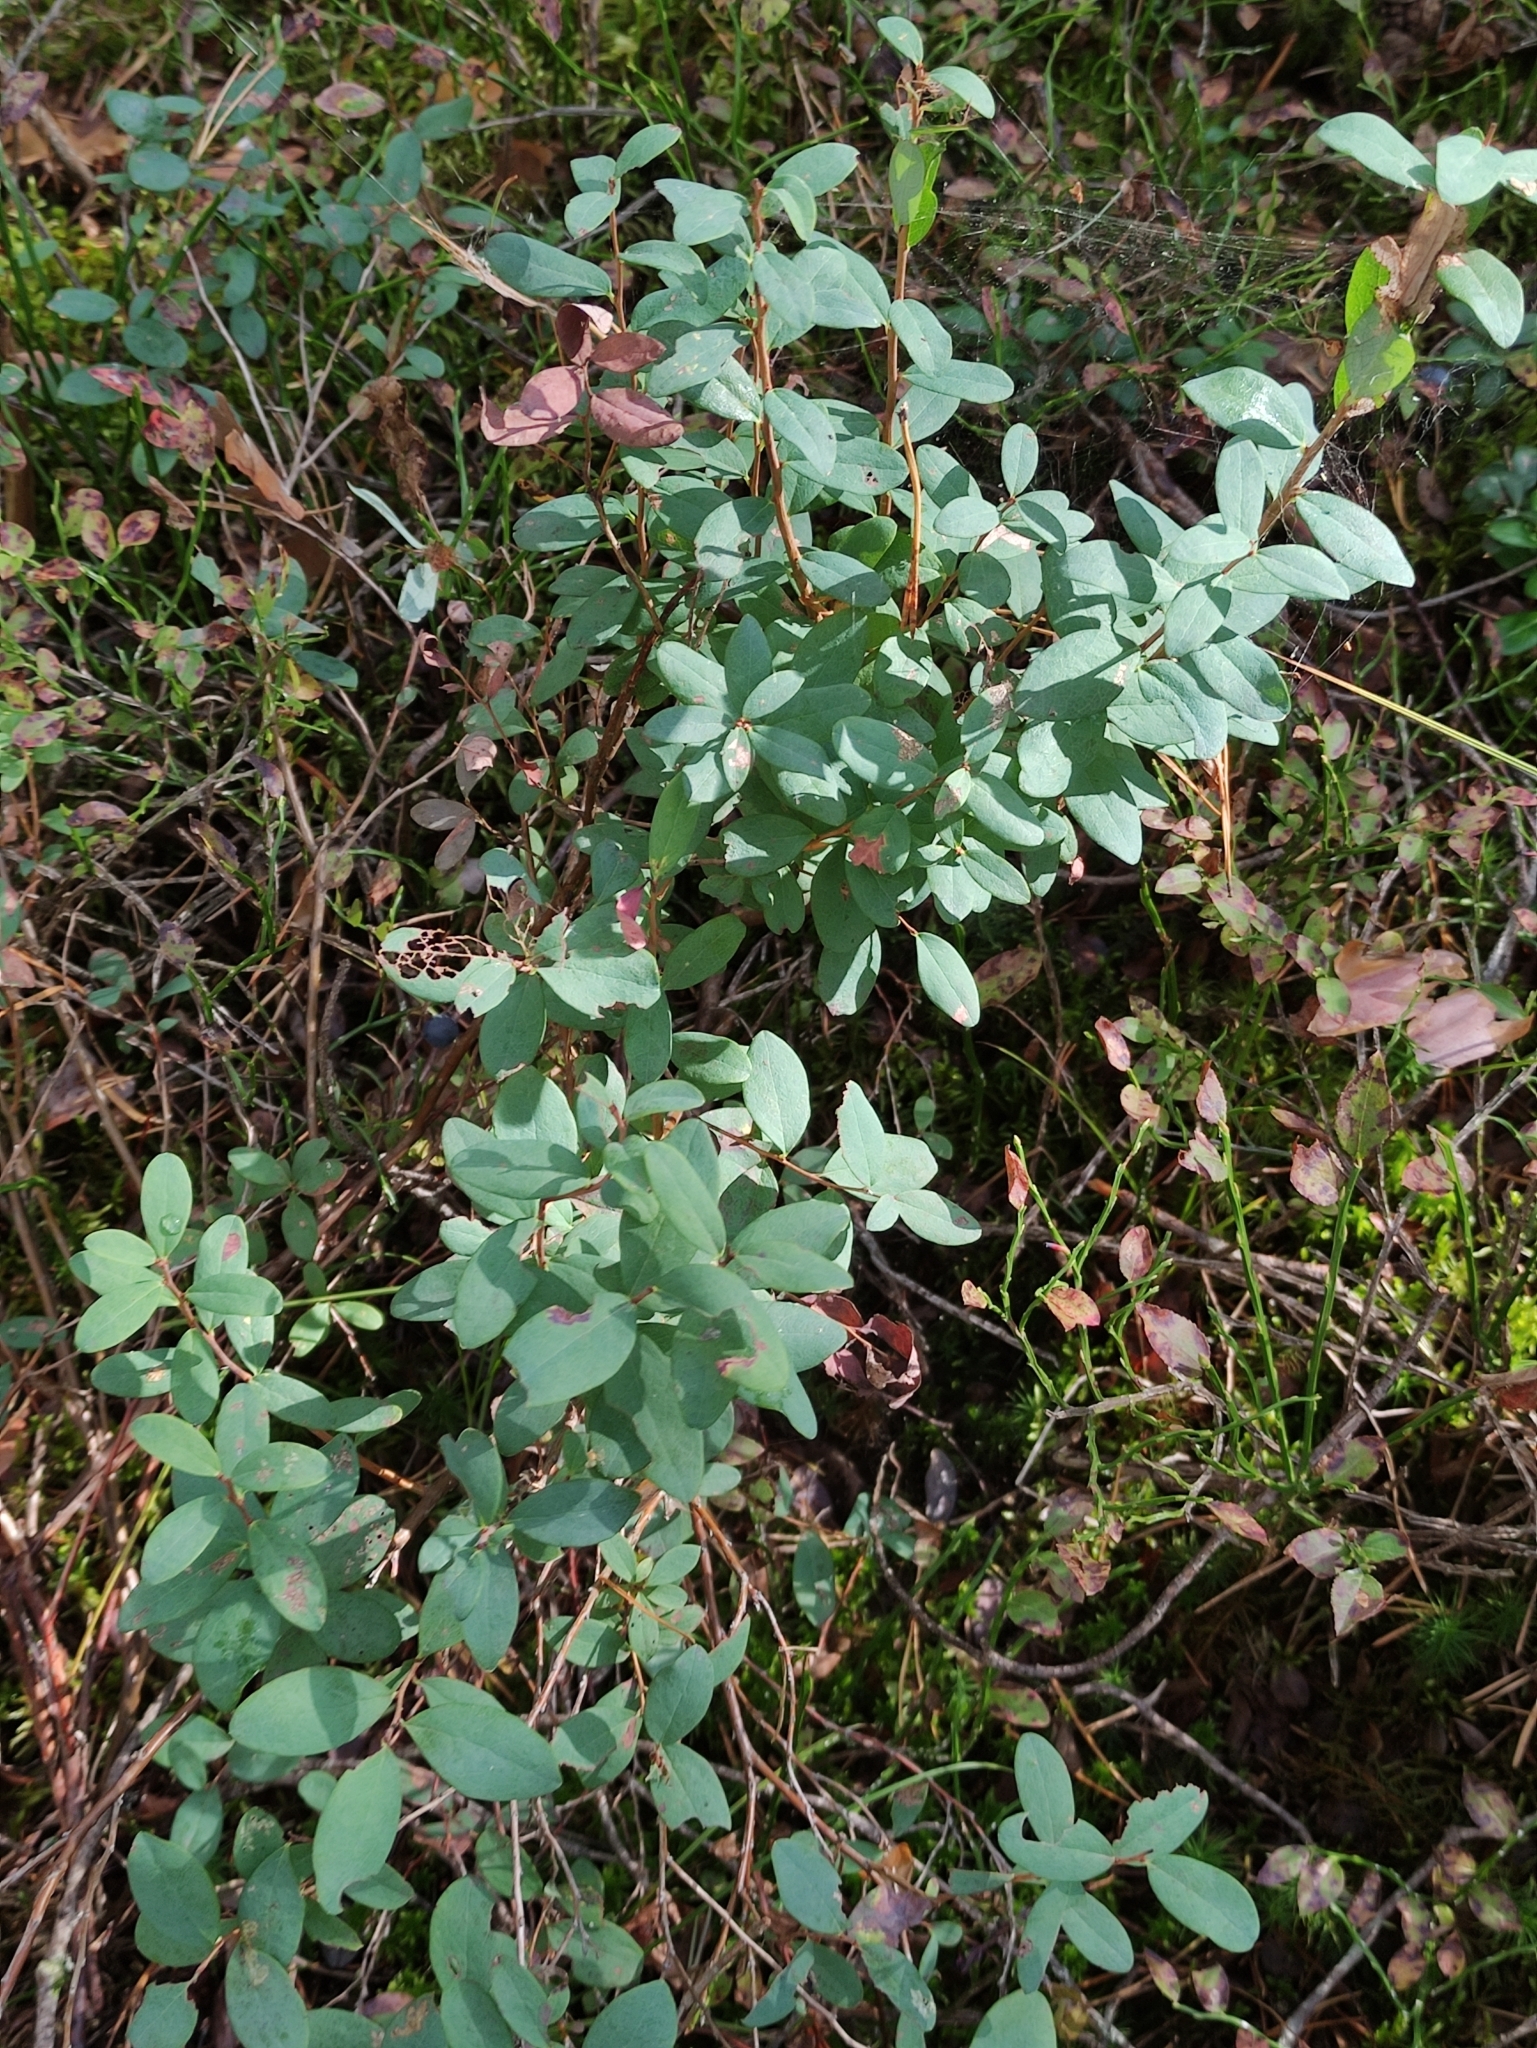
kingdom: Plantae
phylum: Tracheophyta
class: Magnoliopsida
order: Ericales
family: Ericaceae
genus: Vaccinium
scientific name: Vaccinium uliginosum
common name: Bog bilberry
